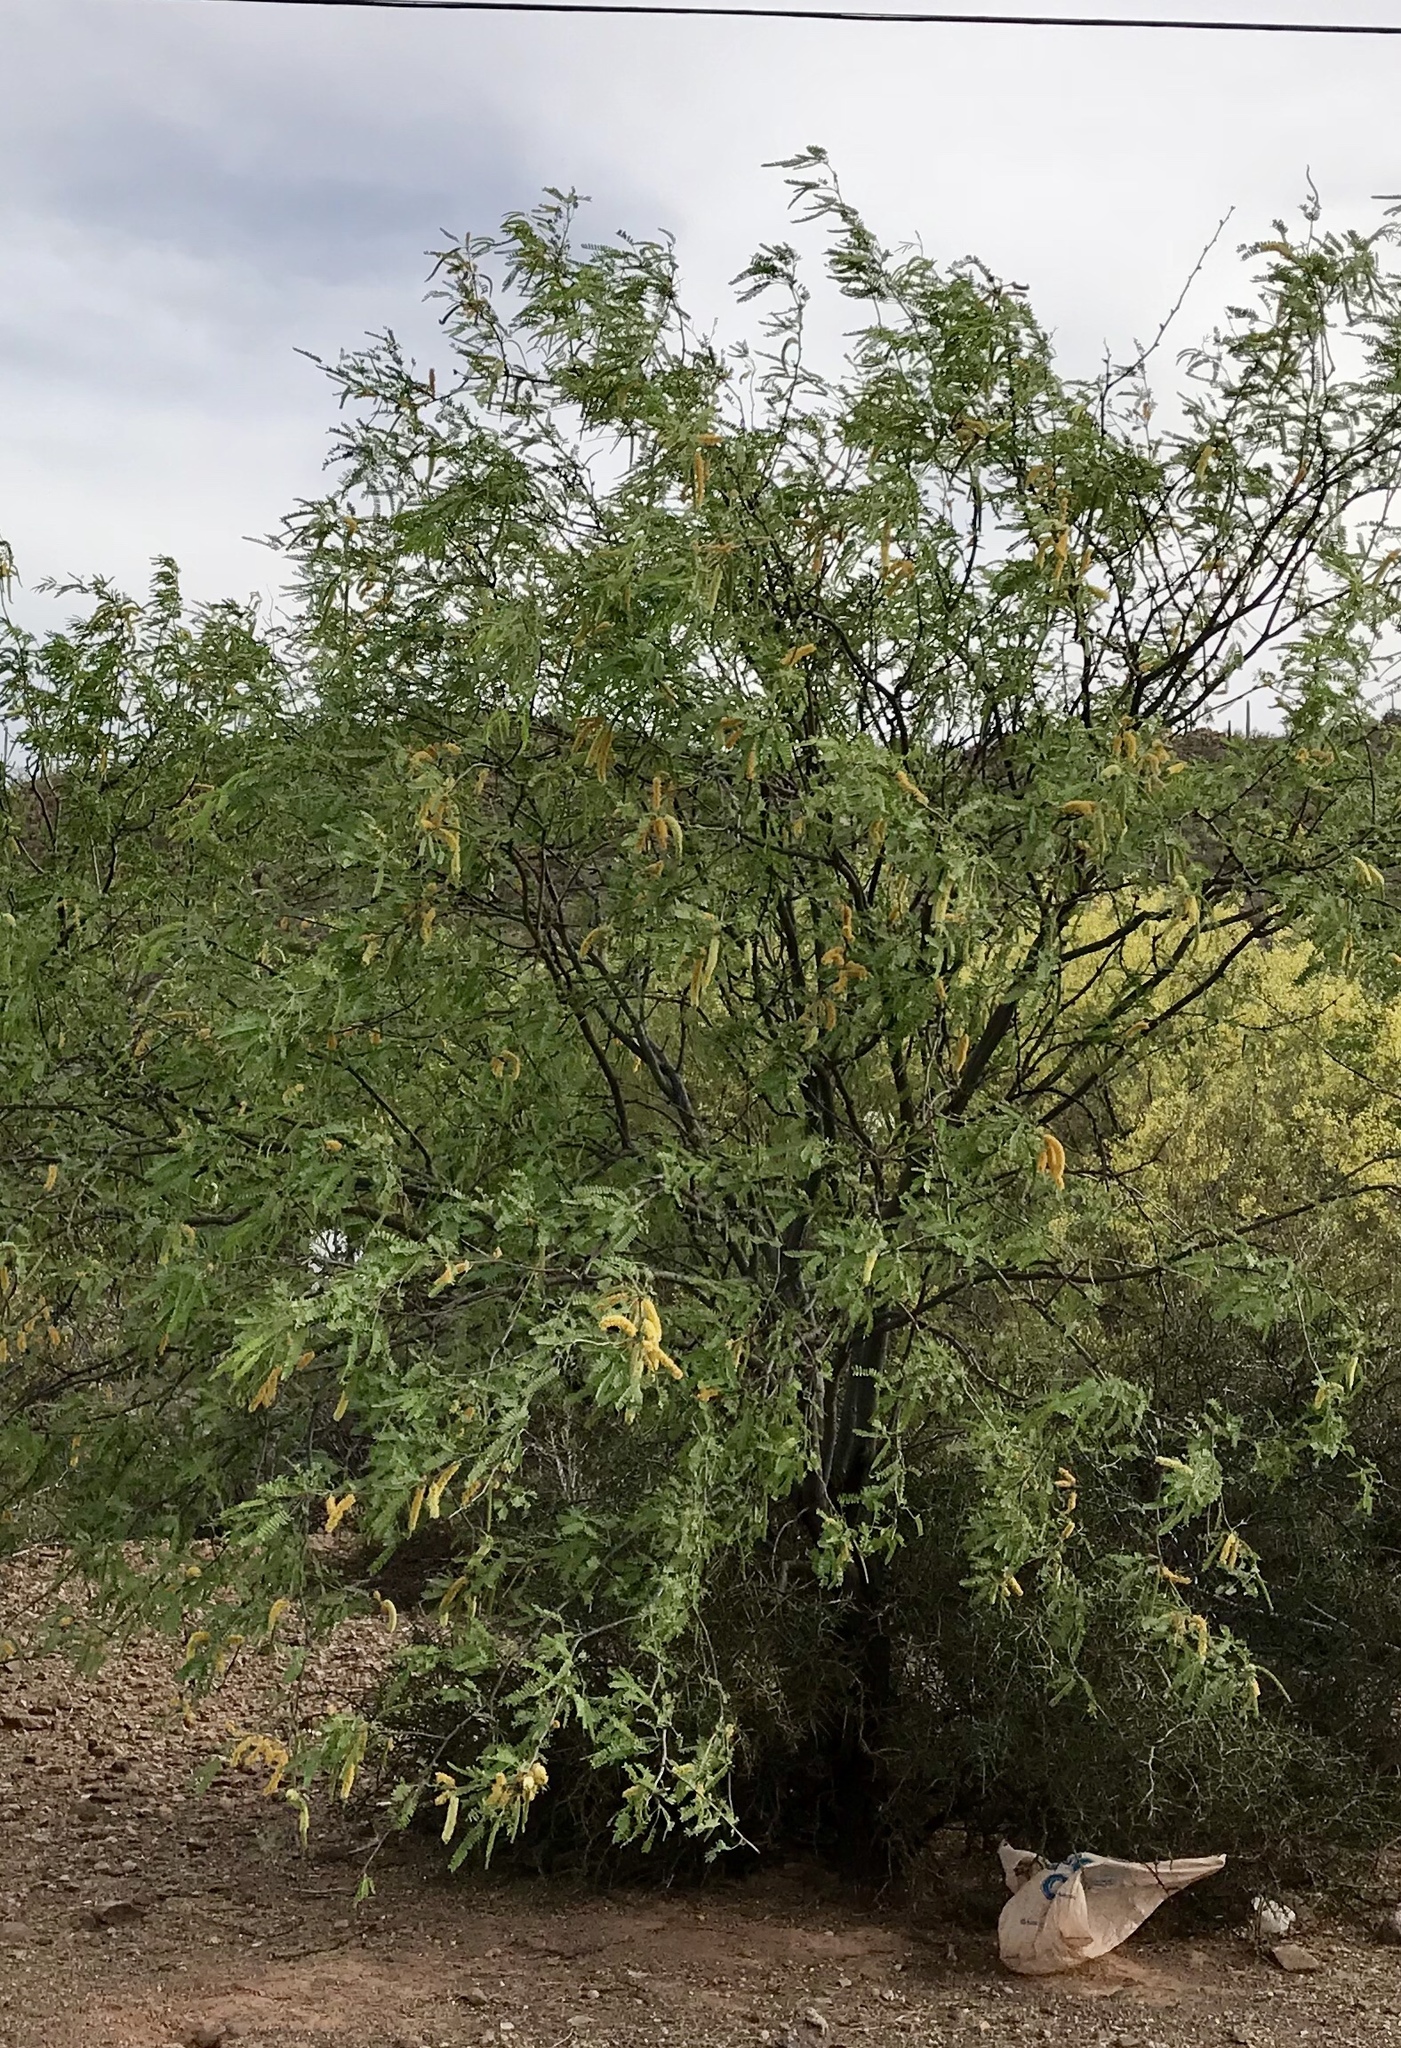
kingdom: Plantae
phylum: Tracheophyta
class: Magnoliopsida
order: Fabales
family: Fabaceae
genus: Prosopis
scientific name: Prosopis velutina
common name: Velvet mesquite
